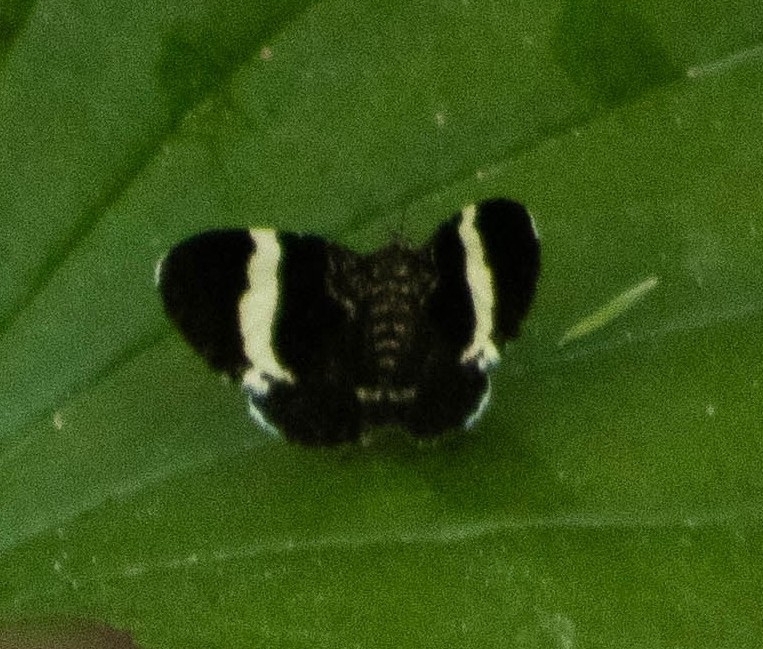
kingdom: Animalia
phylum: Arthropoda
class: Insecta
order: Lepidoptera
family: Geometridae
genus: Trichodezia
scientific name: Trichodezia albovittata
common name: White striped black
